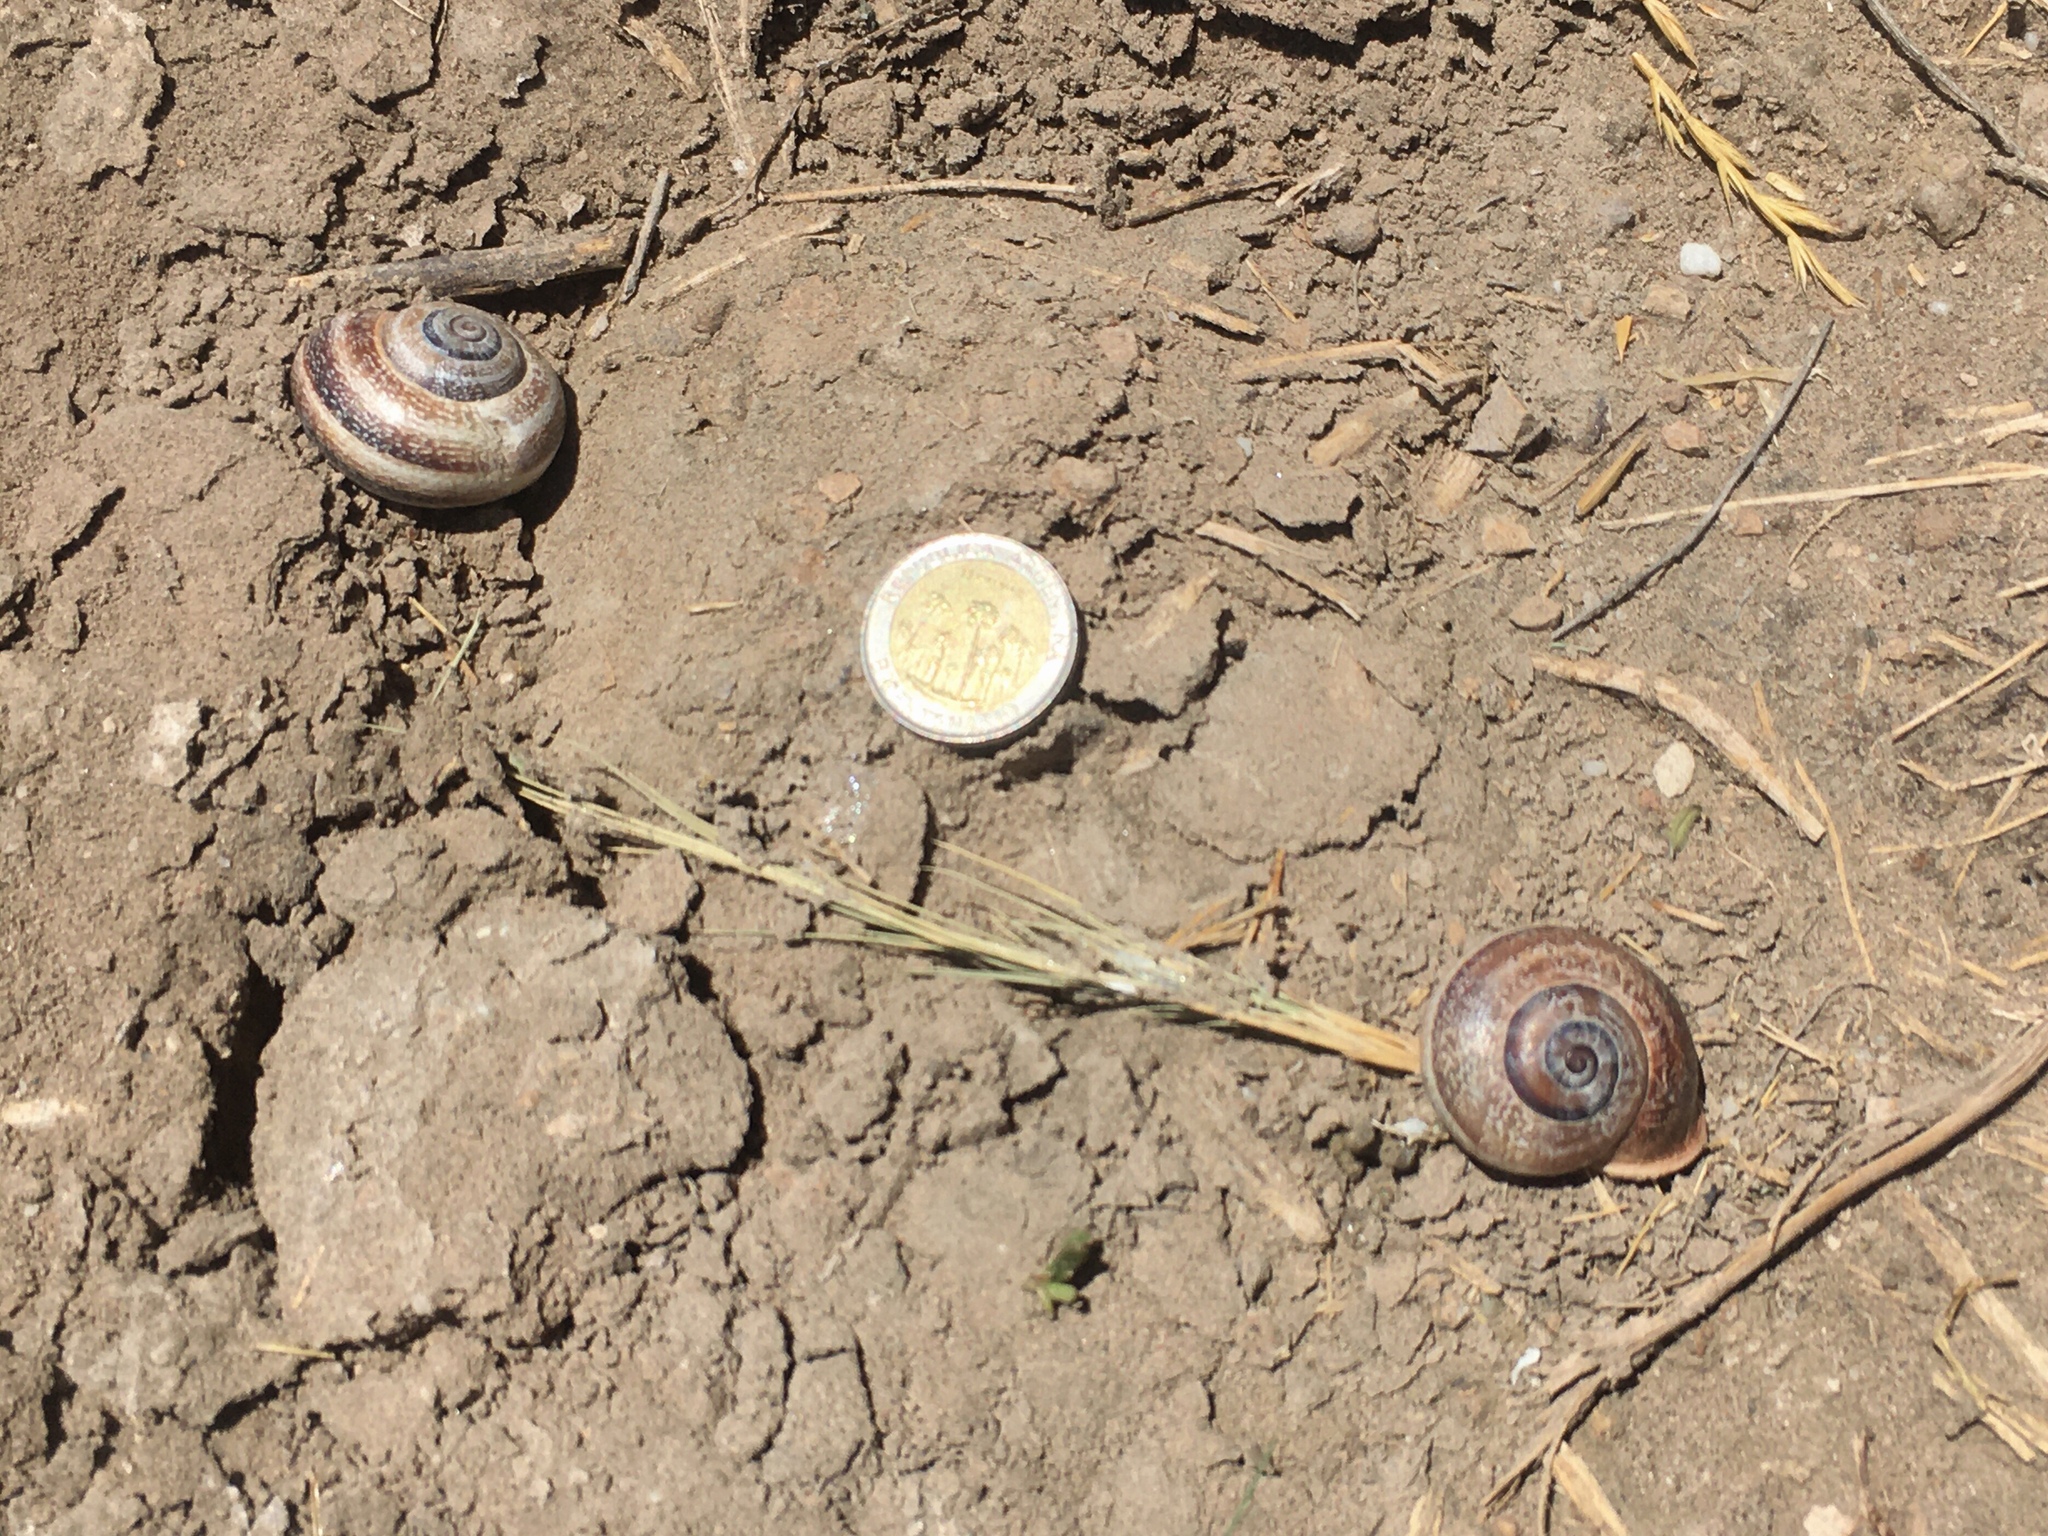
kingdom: Animalia
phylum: Mollusca
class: Gastropoda
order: Stylommatophora
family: Helicidae
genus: Otala
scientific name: Otala punctata
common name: Milk snail
